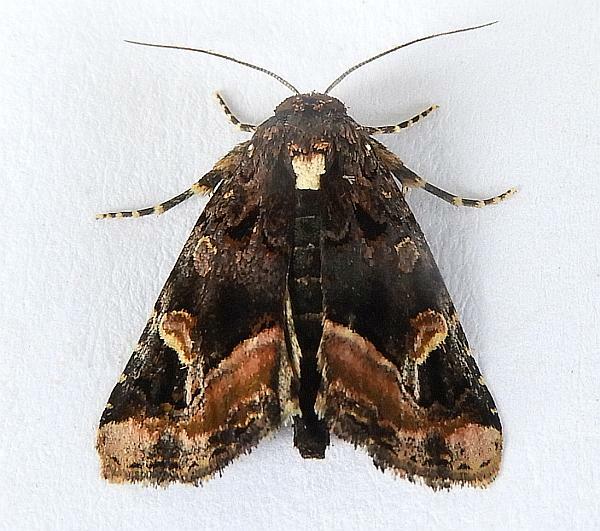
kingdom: Animalia
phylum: Arthropoda
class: Insecta
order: Lepidoptera
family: Noctuidae
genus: Homophoberia
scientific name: Homophoberia apicosa
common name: Black wedge-spot
